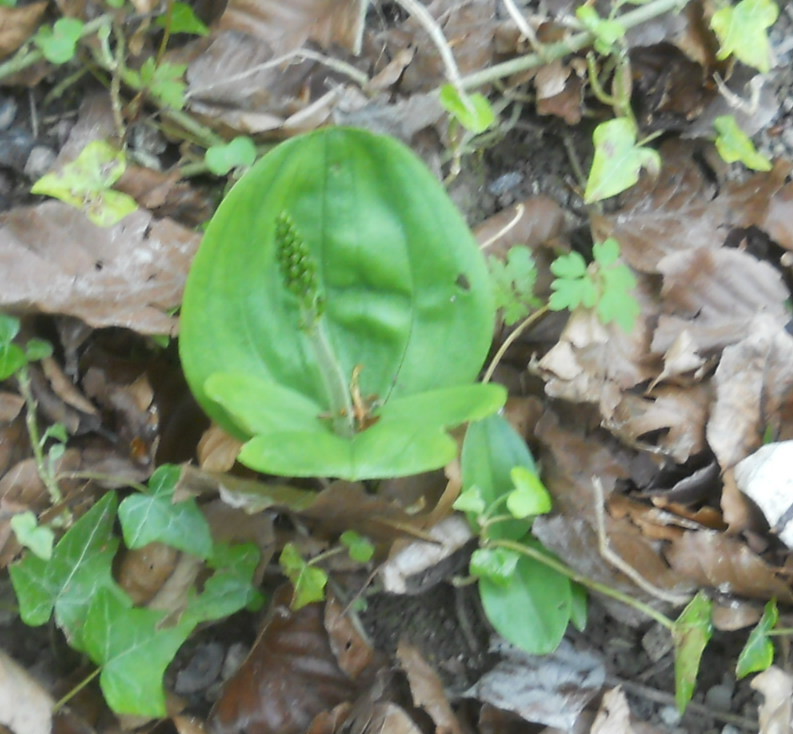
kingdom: Plantae
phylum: Tracheophyta
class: Liliopsida
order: Asparagales
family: Orchidaceae
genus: Neottia
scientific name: Neottia ovata
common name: Common twayblade
